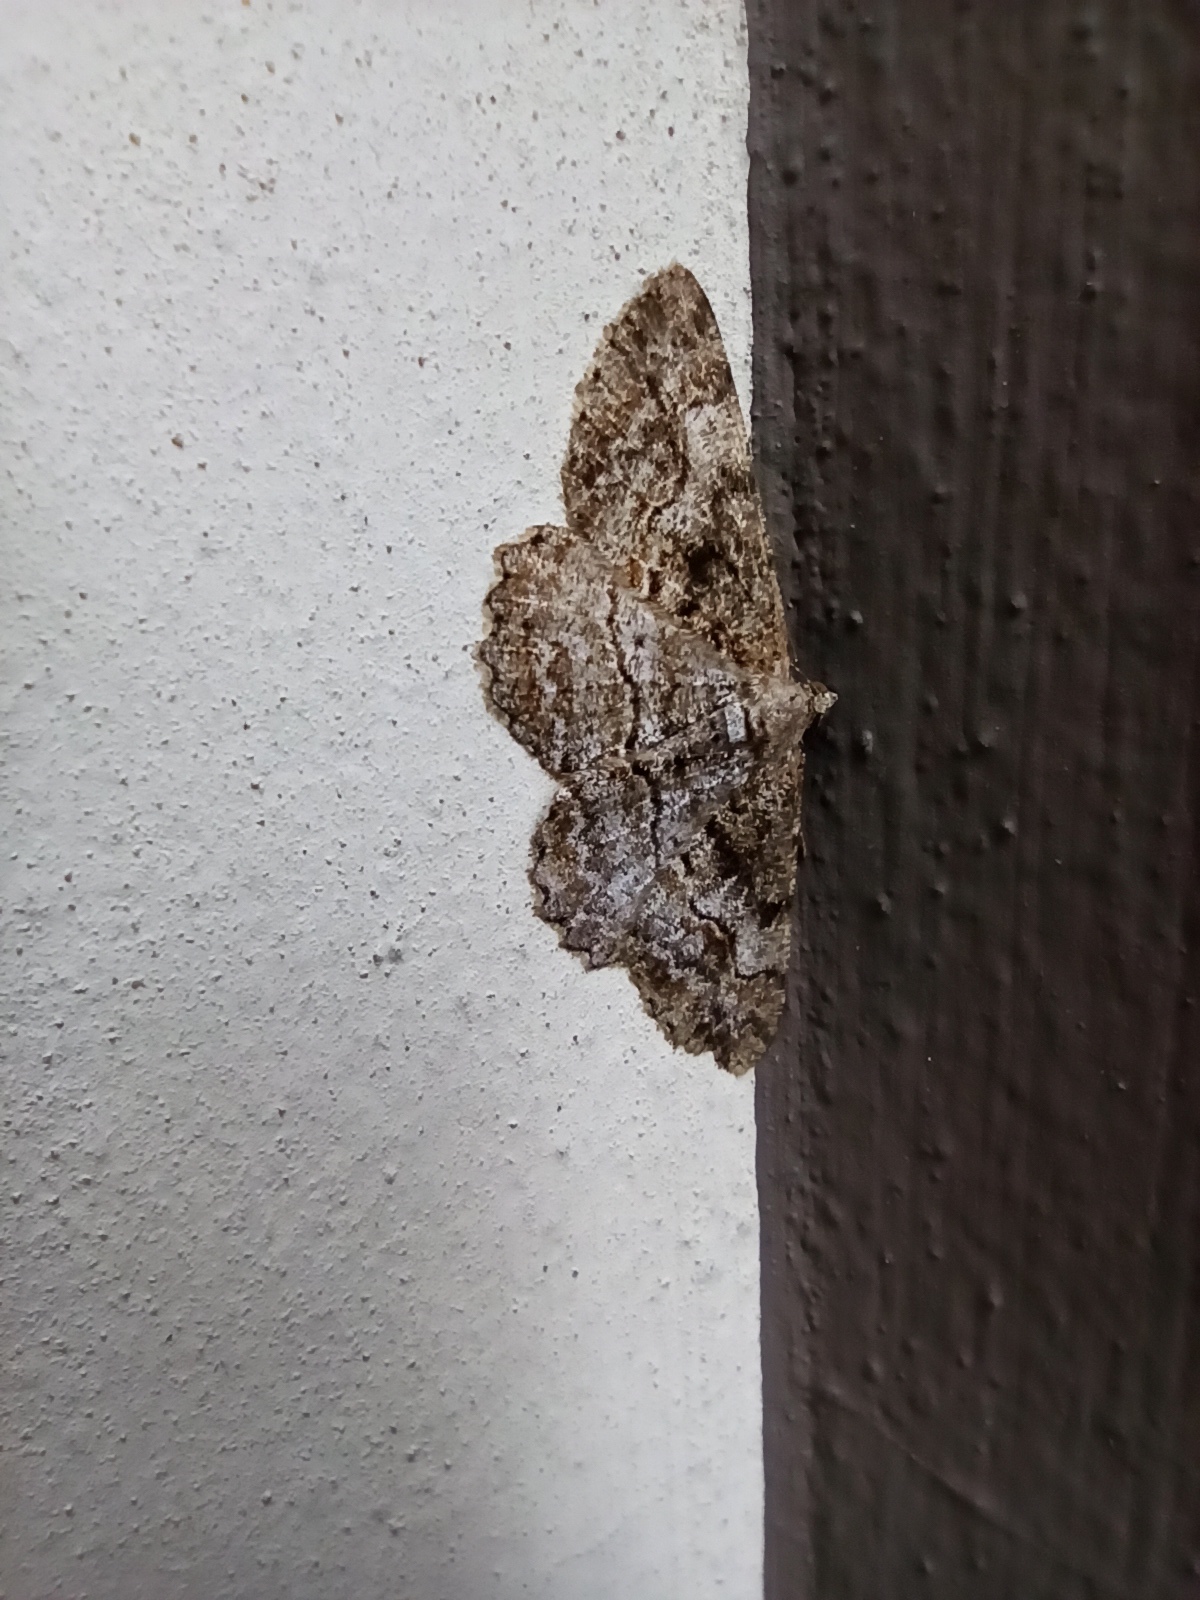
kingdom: Animalia
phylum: Arthropoda
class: Insecta
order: Lepidoptera
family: Geometridae
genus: Alcis
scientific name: Alcis repandata
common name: Mottled beauty
